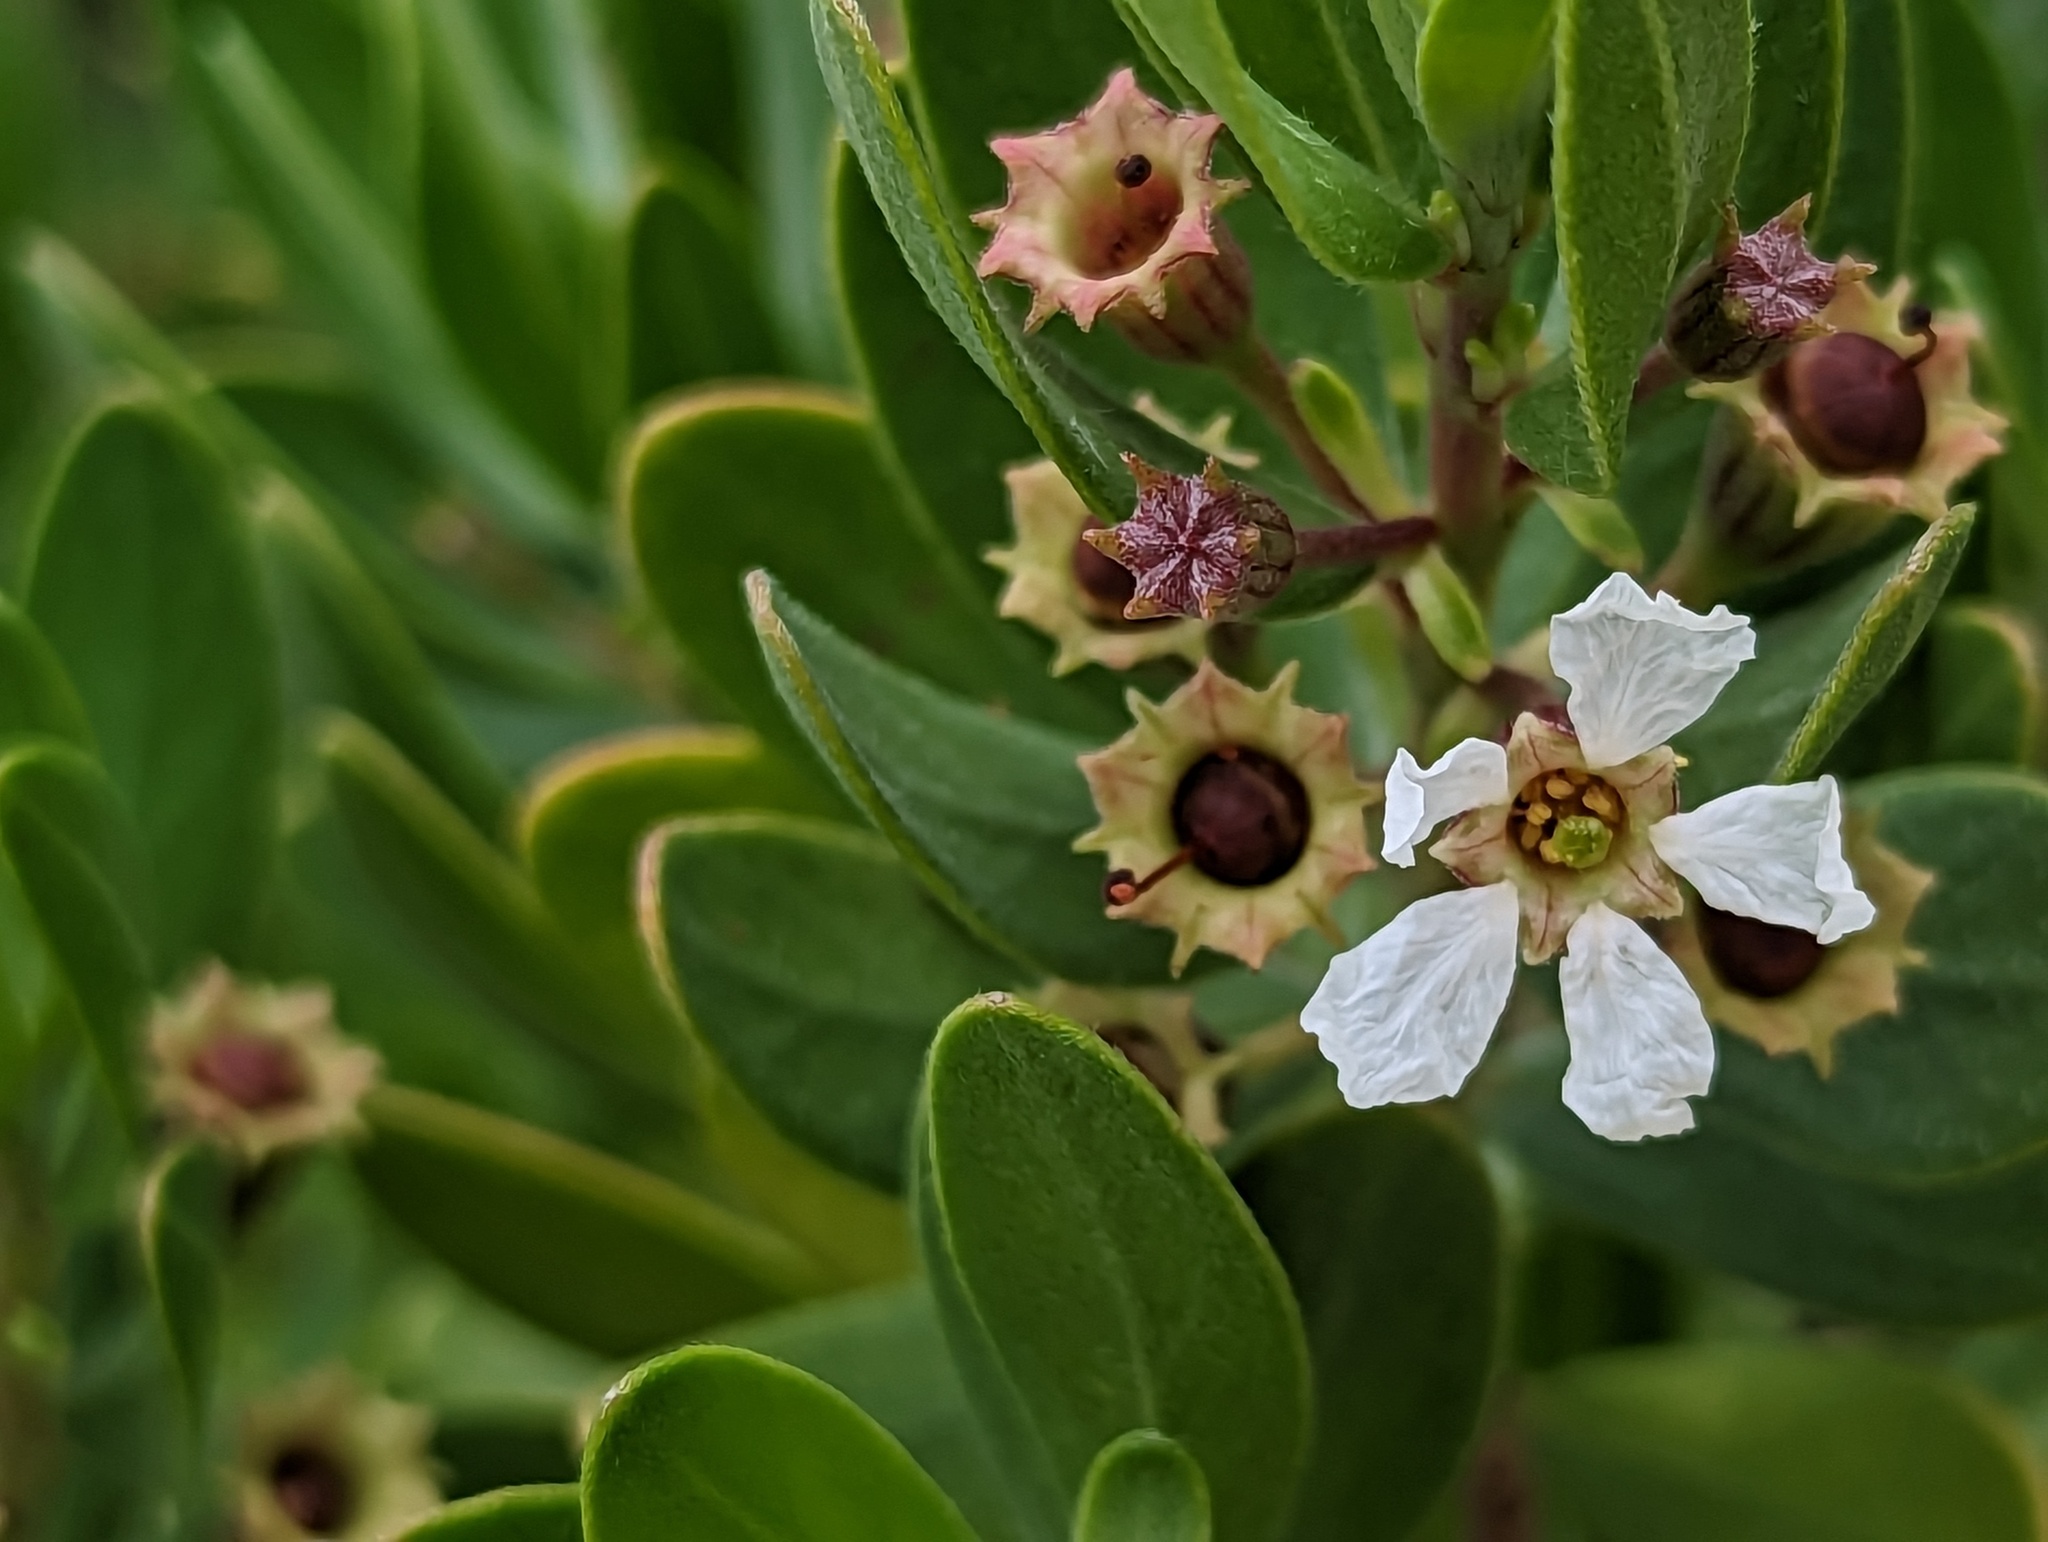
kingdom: Plantae
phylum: Tracheophyta
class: Magnoliopsida
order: Myrtales
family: Lythraceae
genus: Pemphis
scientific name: Pemphis acidula
